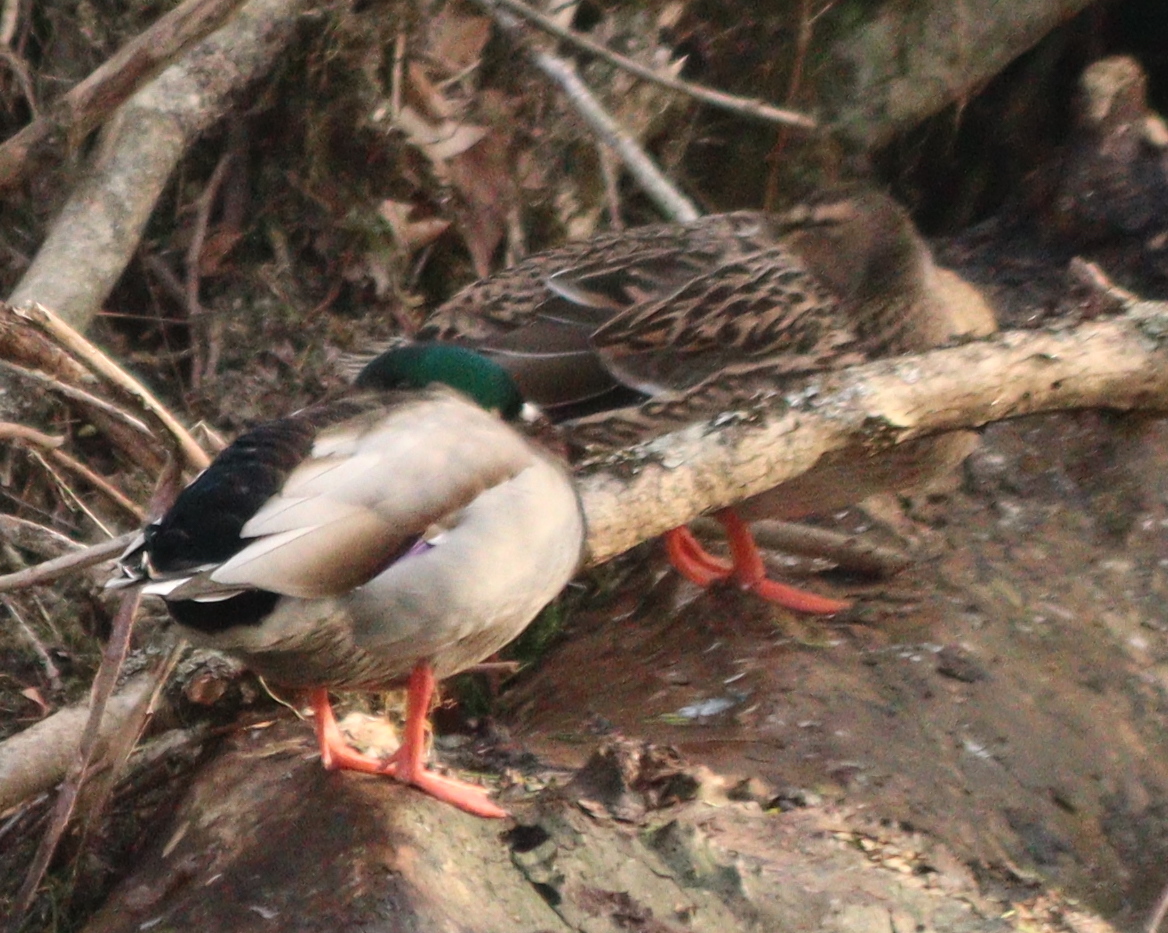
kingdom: Animalia
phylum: Chordata
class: Aves
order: Anseriformes
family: Anatidae
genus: Anas
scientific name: Anas platyrhynchos
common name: Mallard
